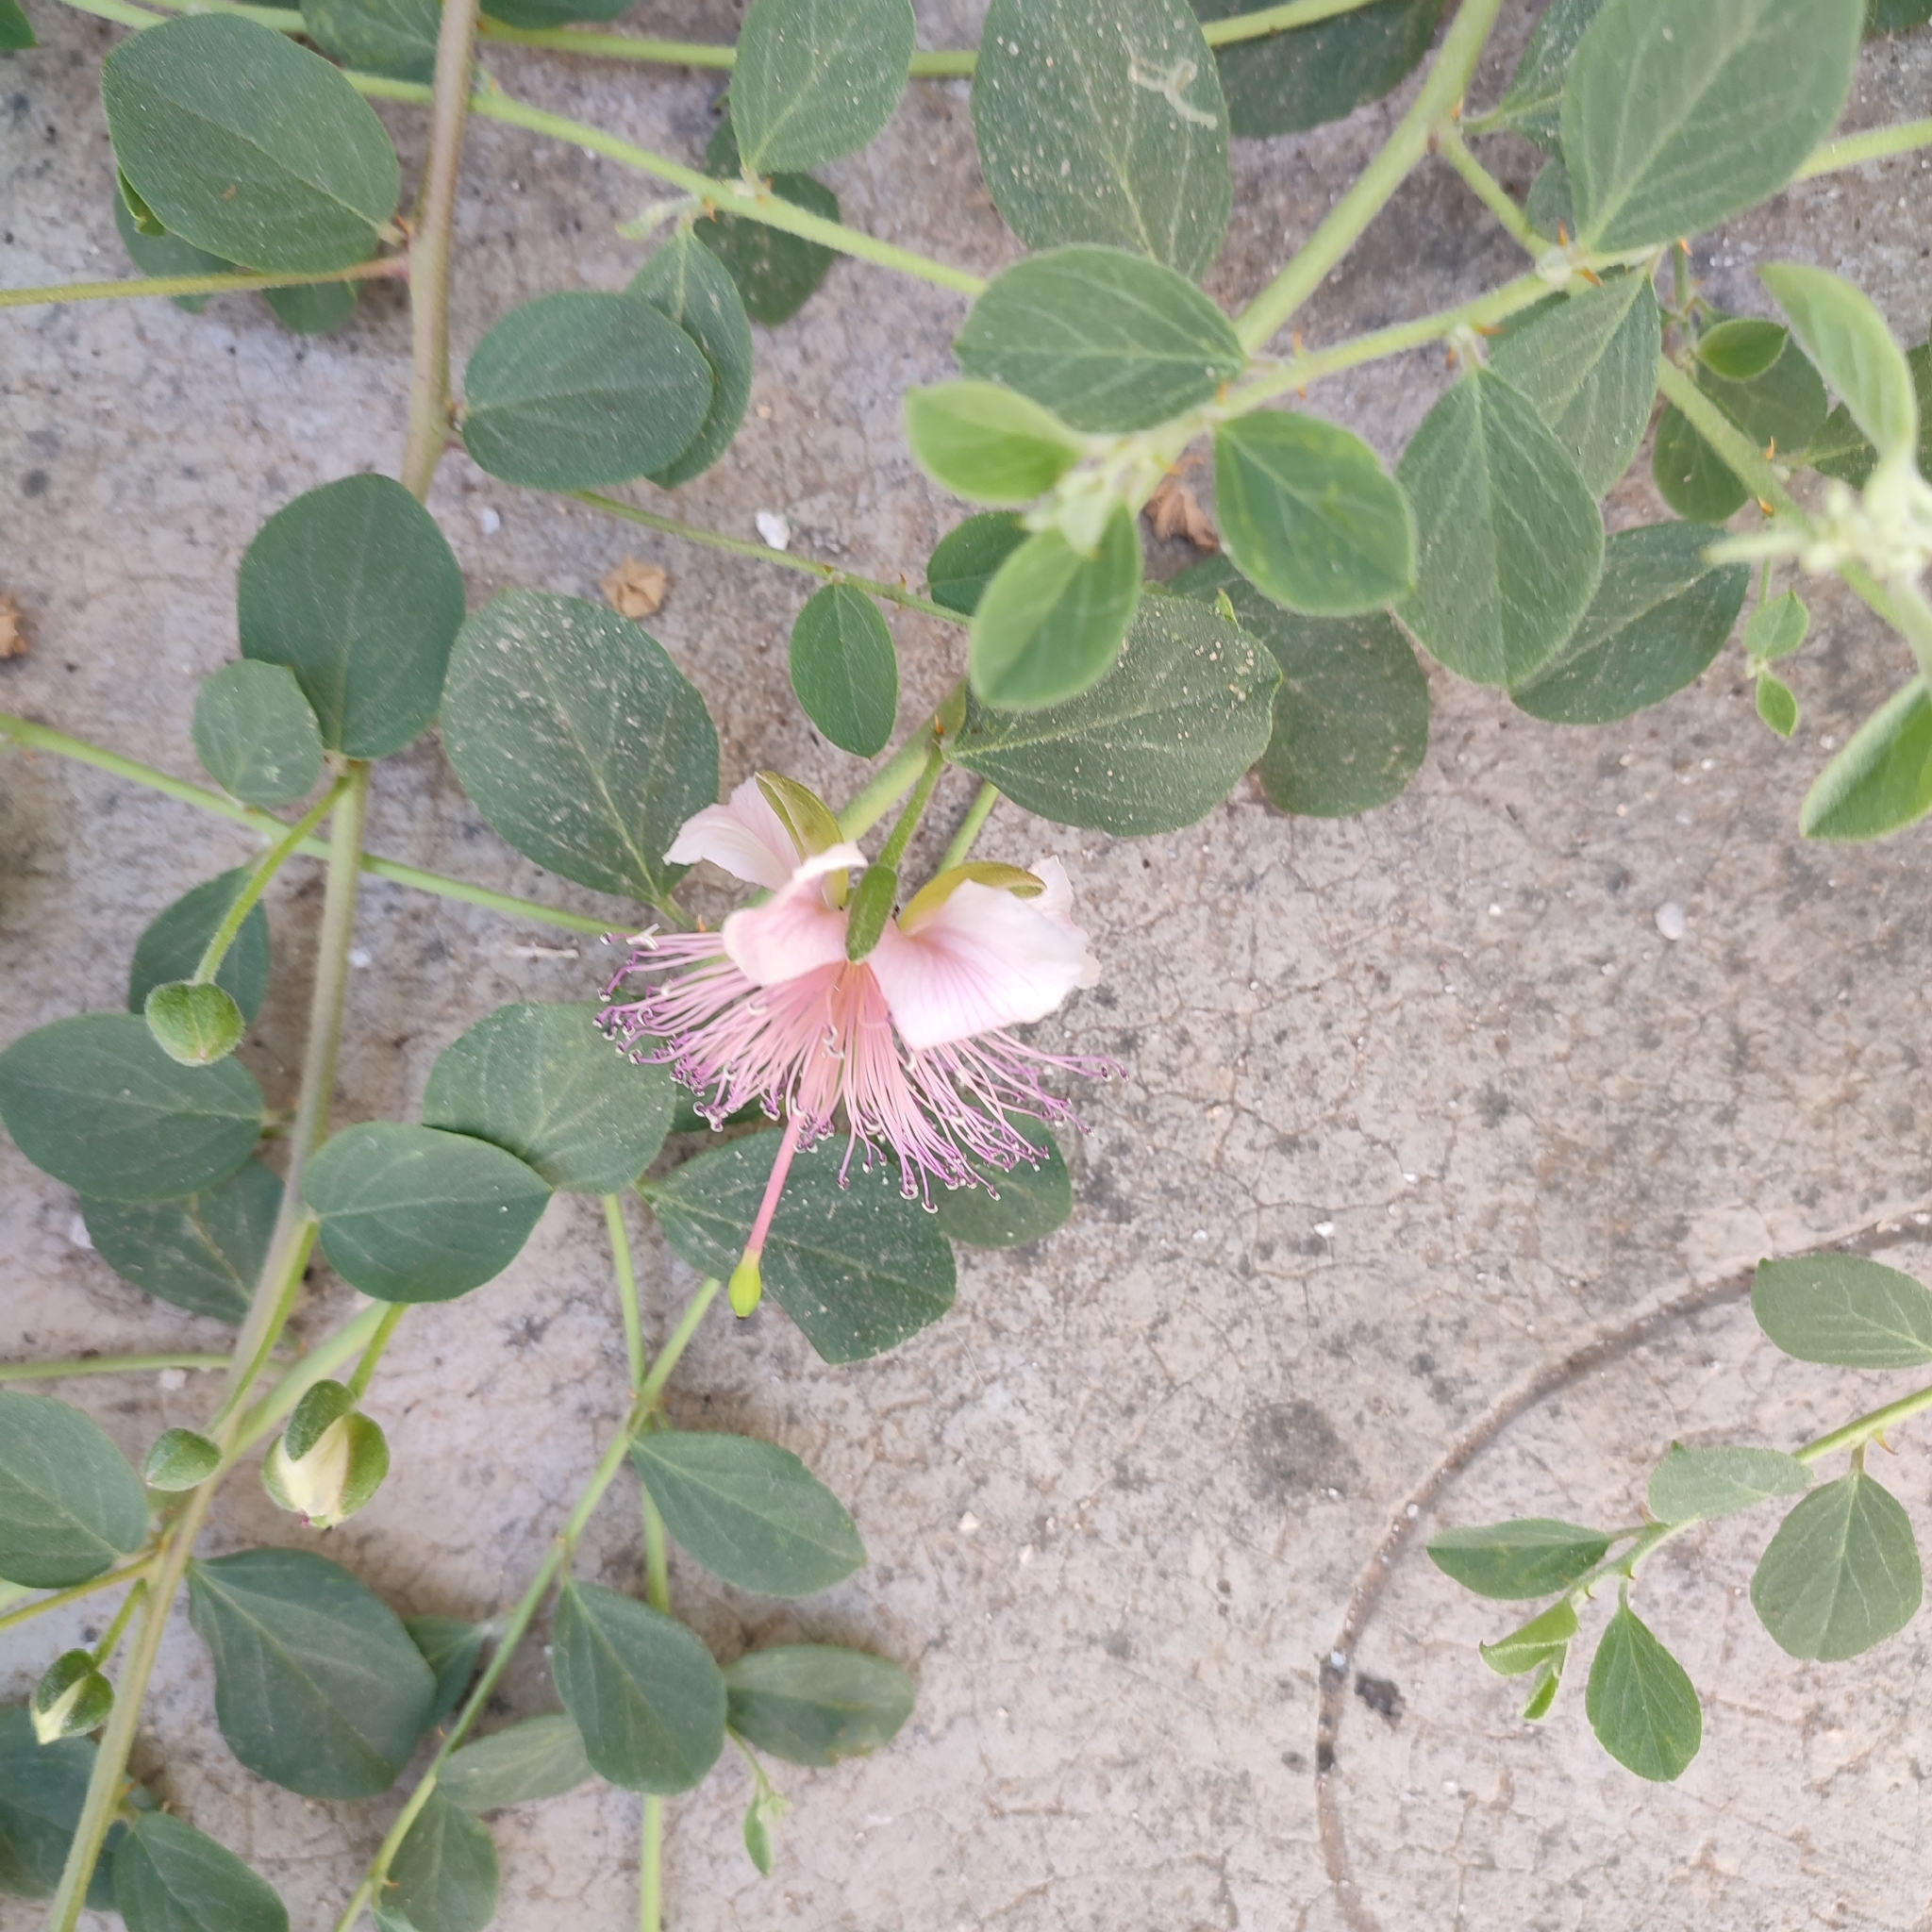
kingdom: Plantae
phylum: Tracheophyta
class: Magnoliopsida
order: Brassicales
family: Capparaceae
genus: Capparis
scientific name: Capparis spinosa
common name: Caper
